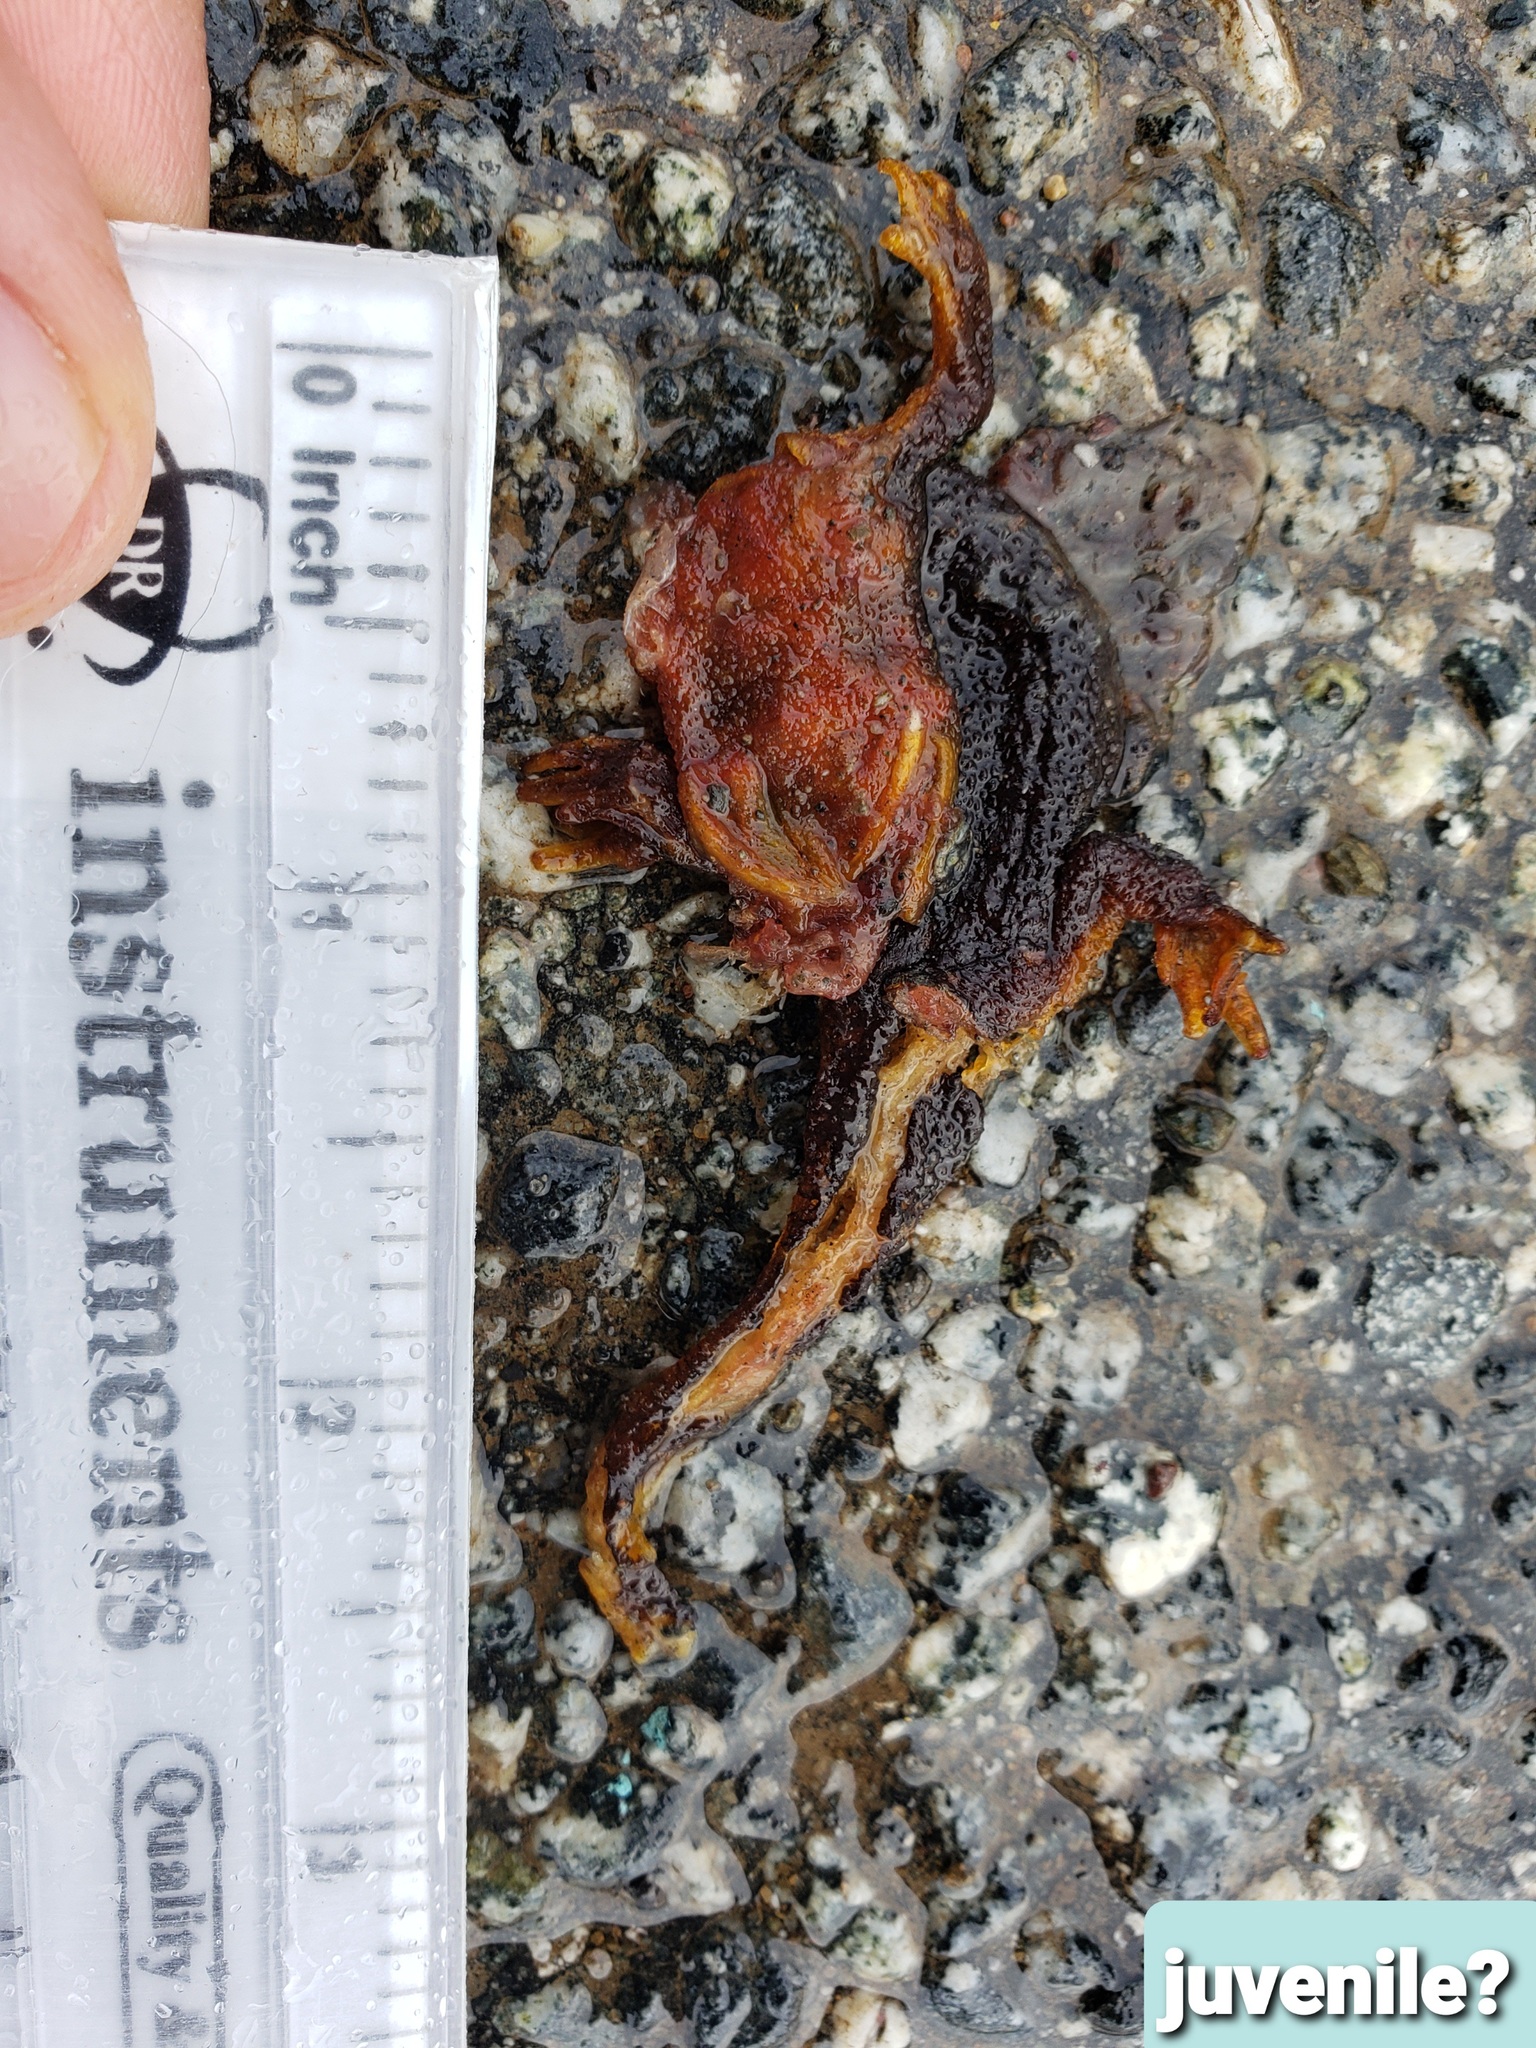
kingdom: Animalia
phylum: Chordata
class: Amphibia
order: Caudata
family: Salamandridae
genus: Taricha
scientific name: Taricha
